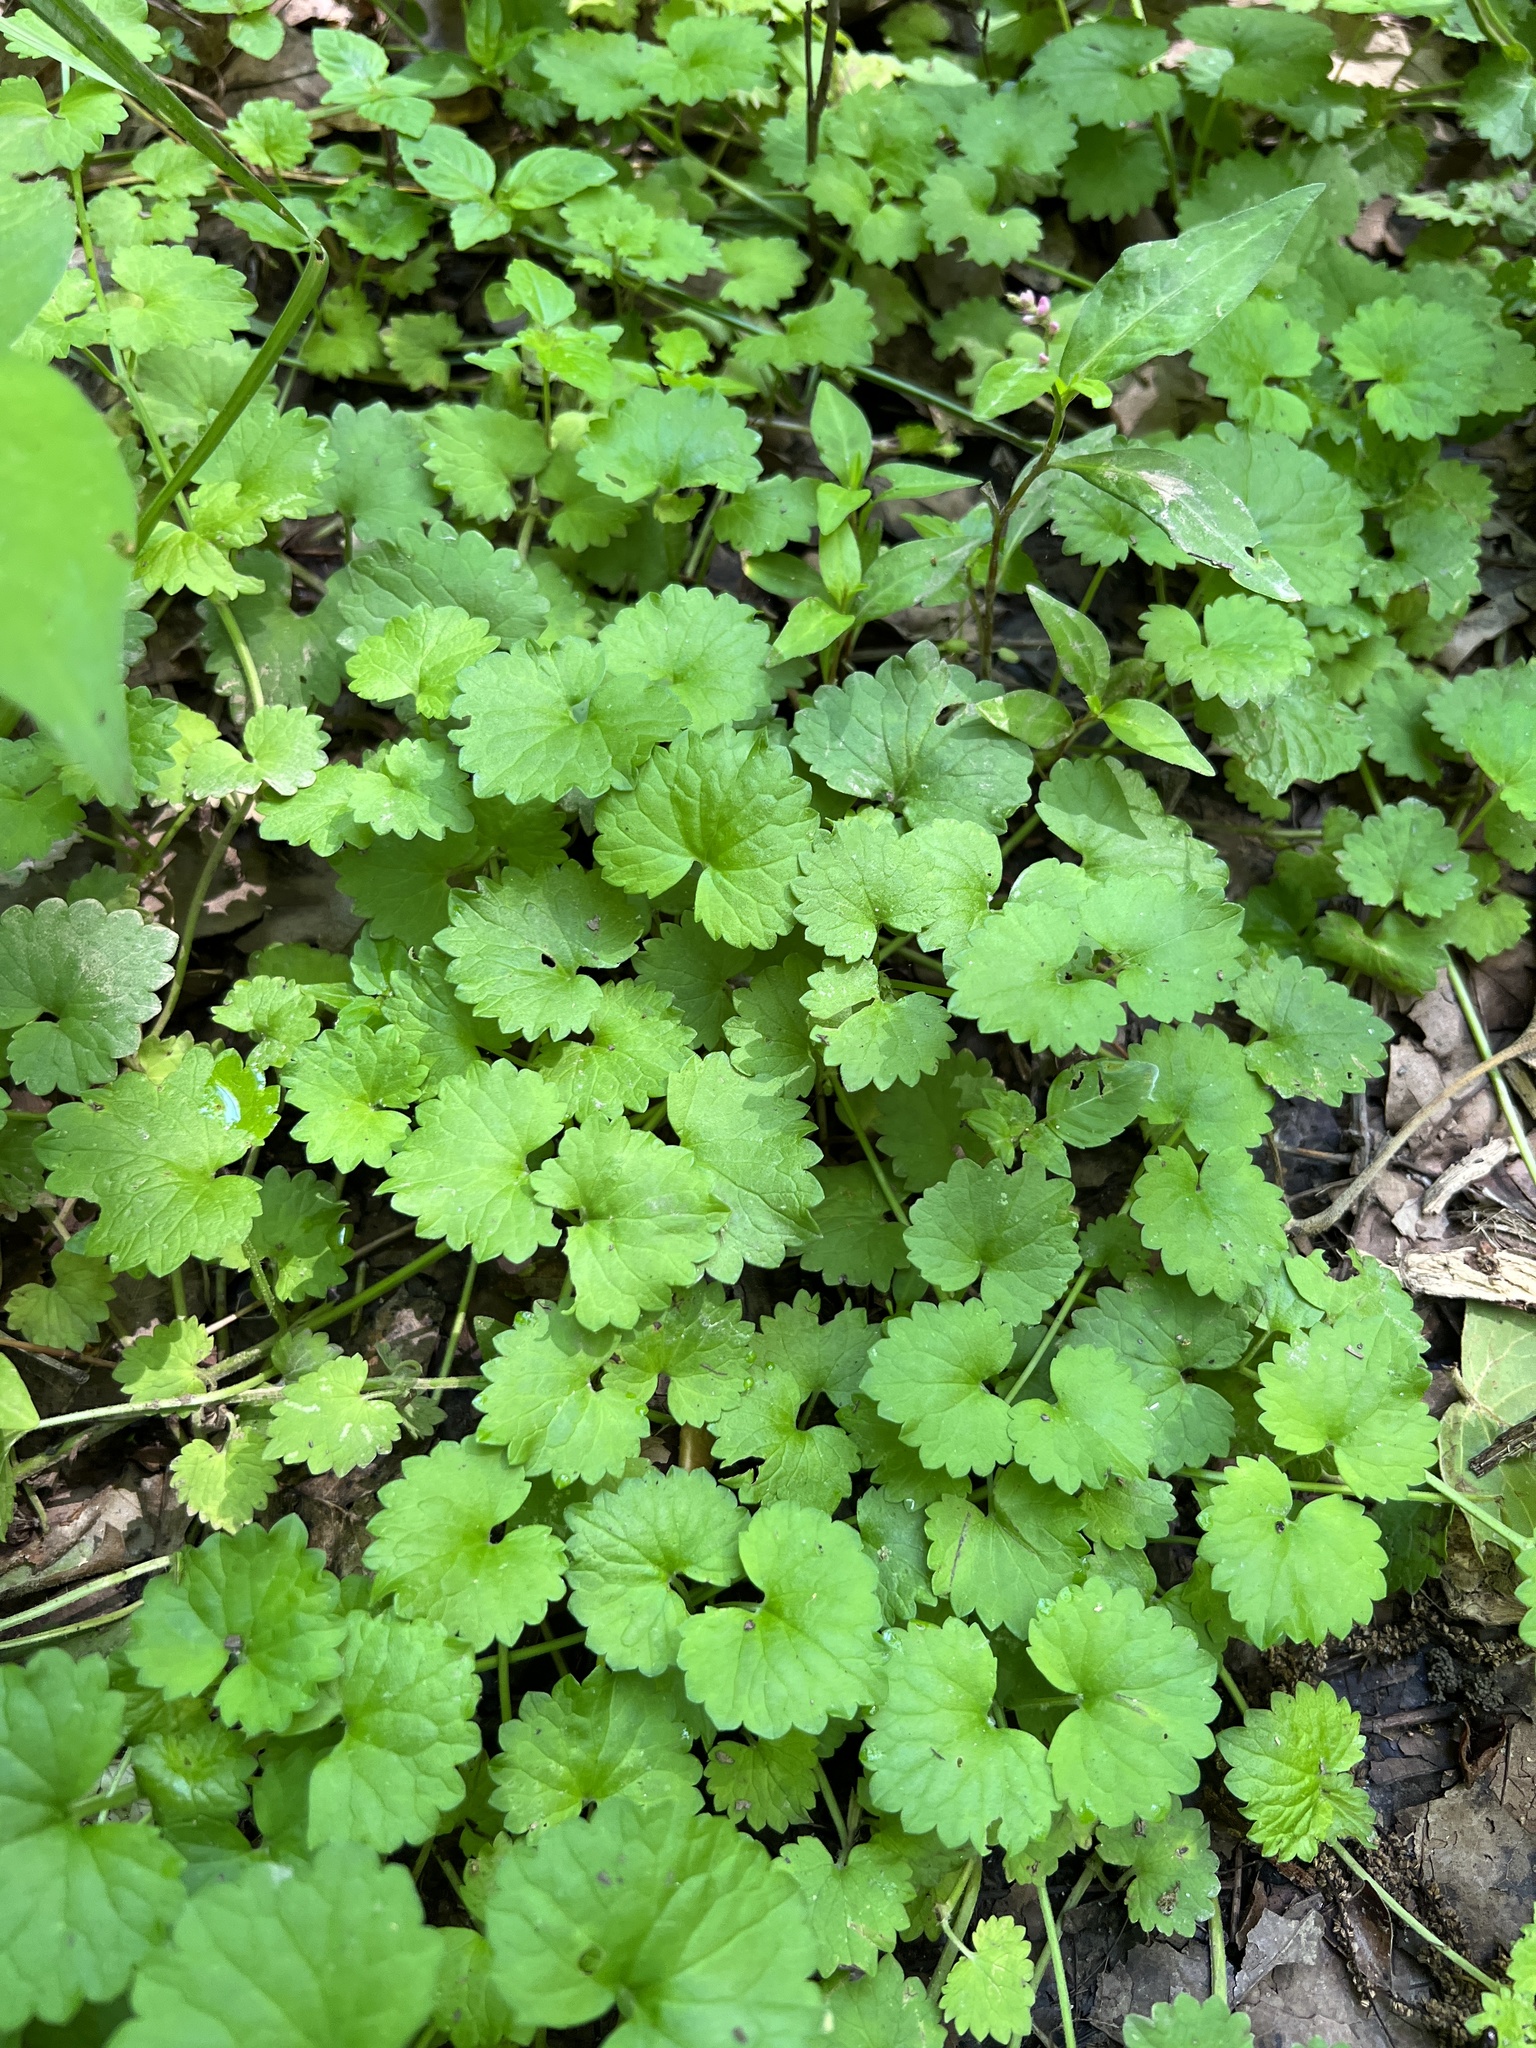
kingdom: Plantae
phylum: Tracheophyta
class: Magnoliopsida
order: Lamiales
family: Lamiaceae
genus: Glechoma
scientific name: Glechoma hederacea
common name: Ground ivy
